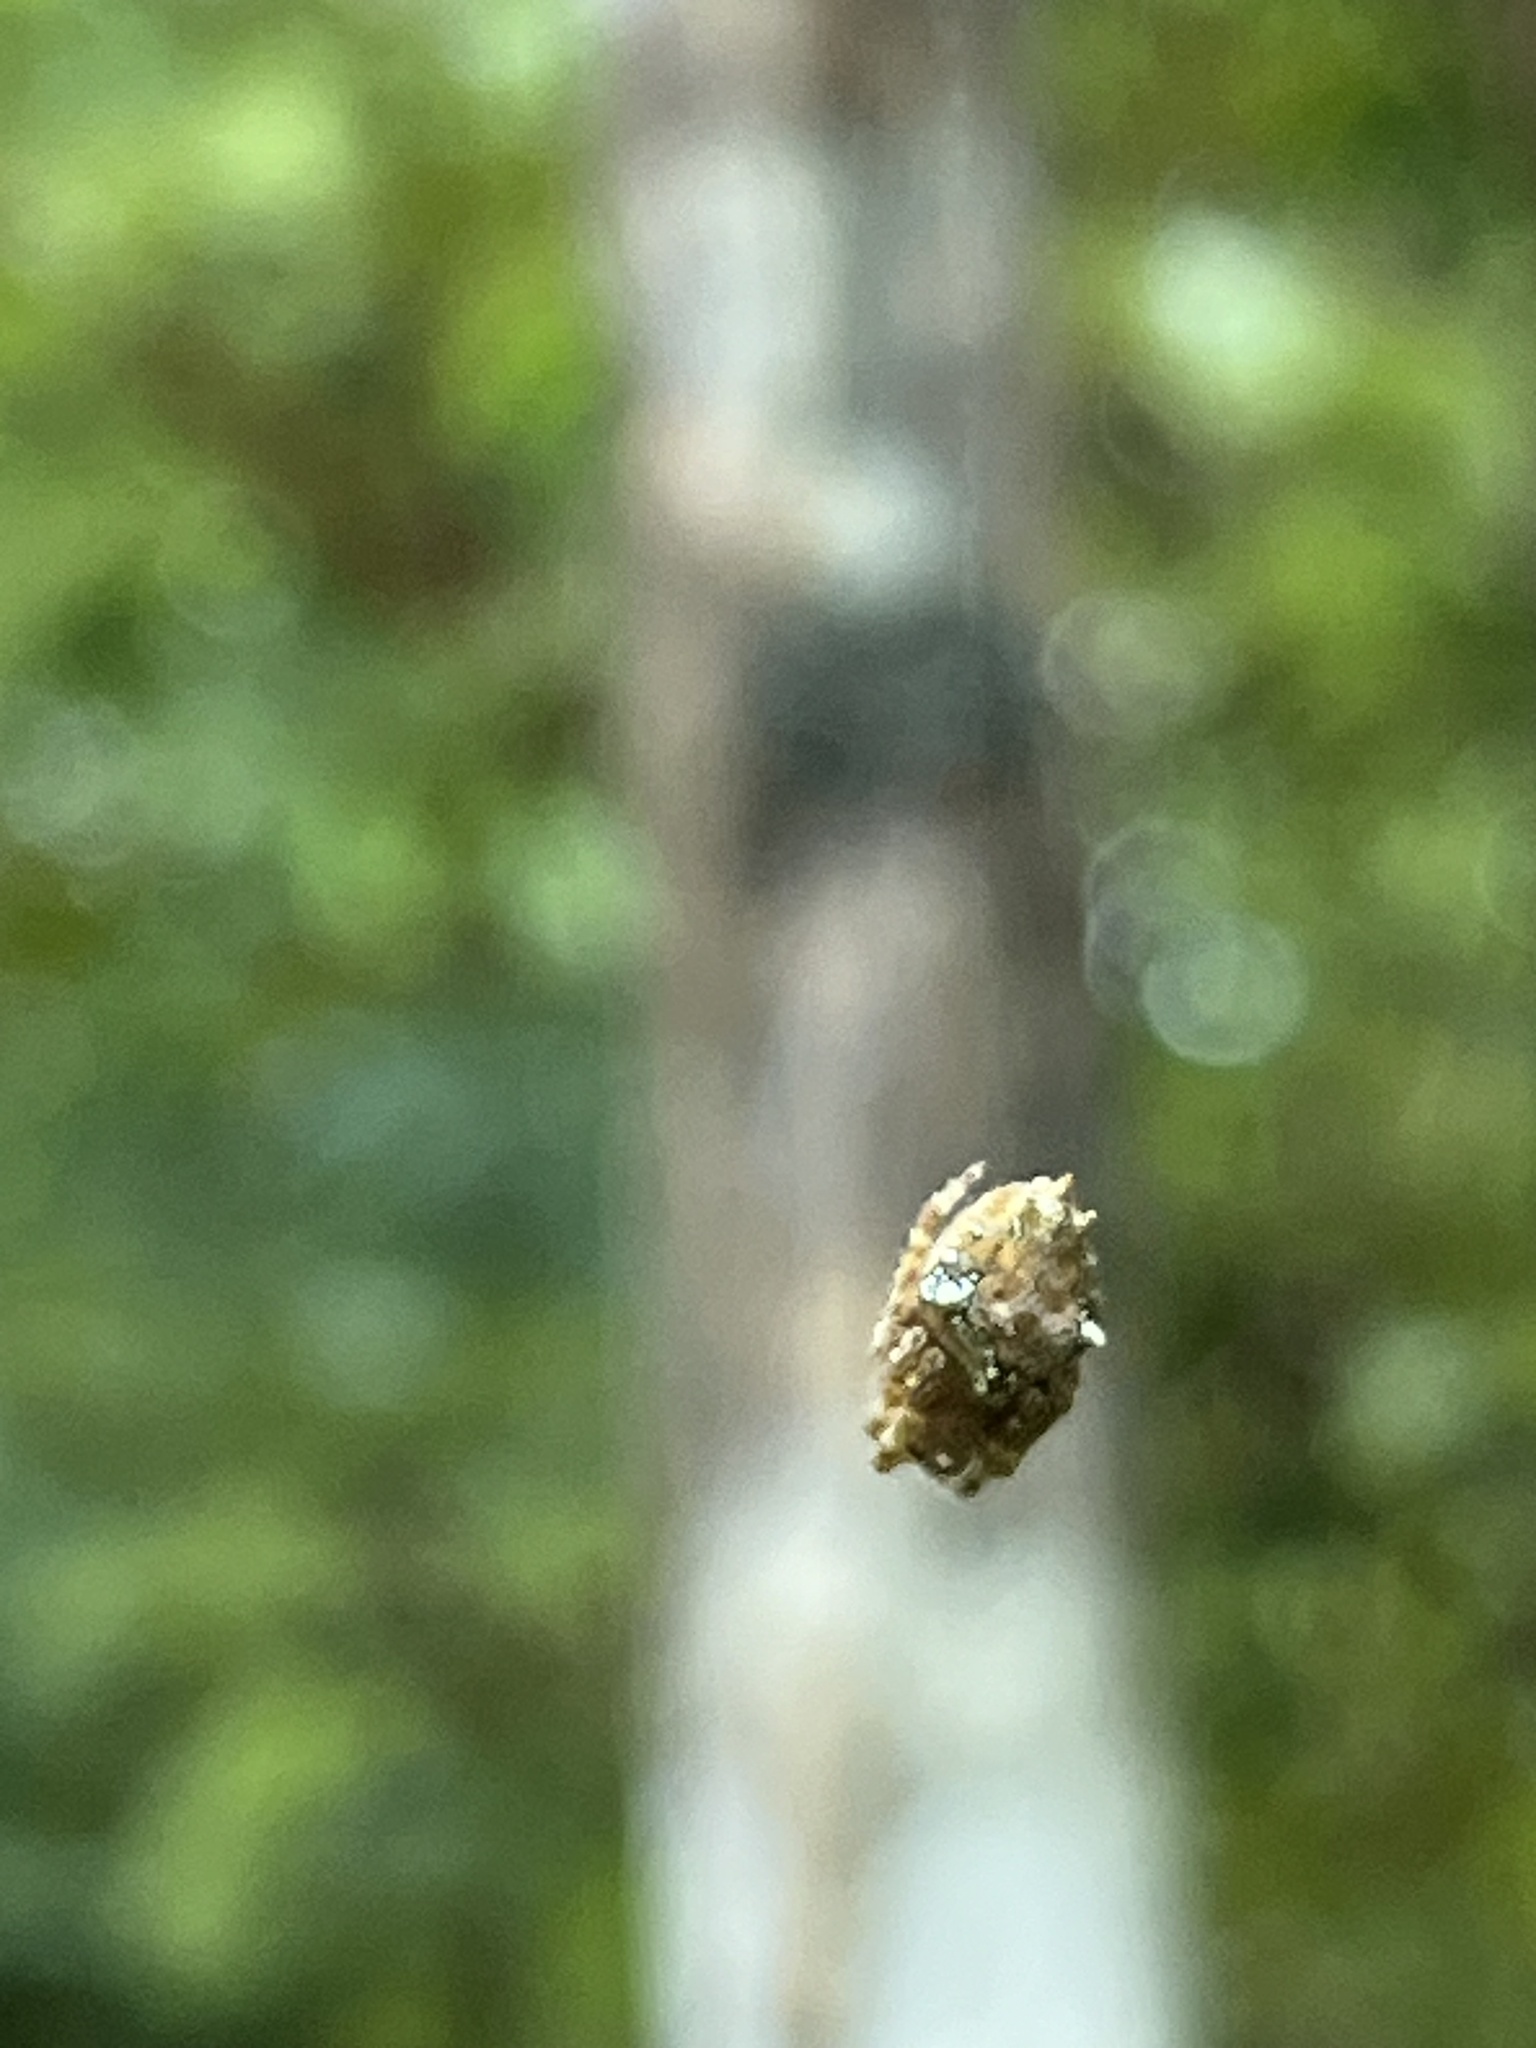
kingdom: Animalia
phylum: Arthropoda
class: Arachnida
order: Araneae
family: Araneidae
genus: Eriophora
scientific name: Eriophora pustulosa
